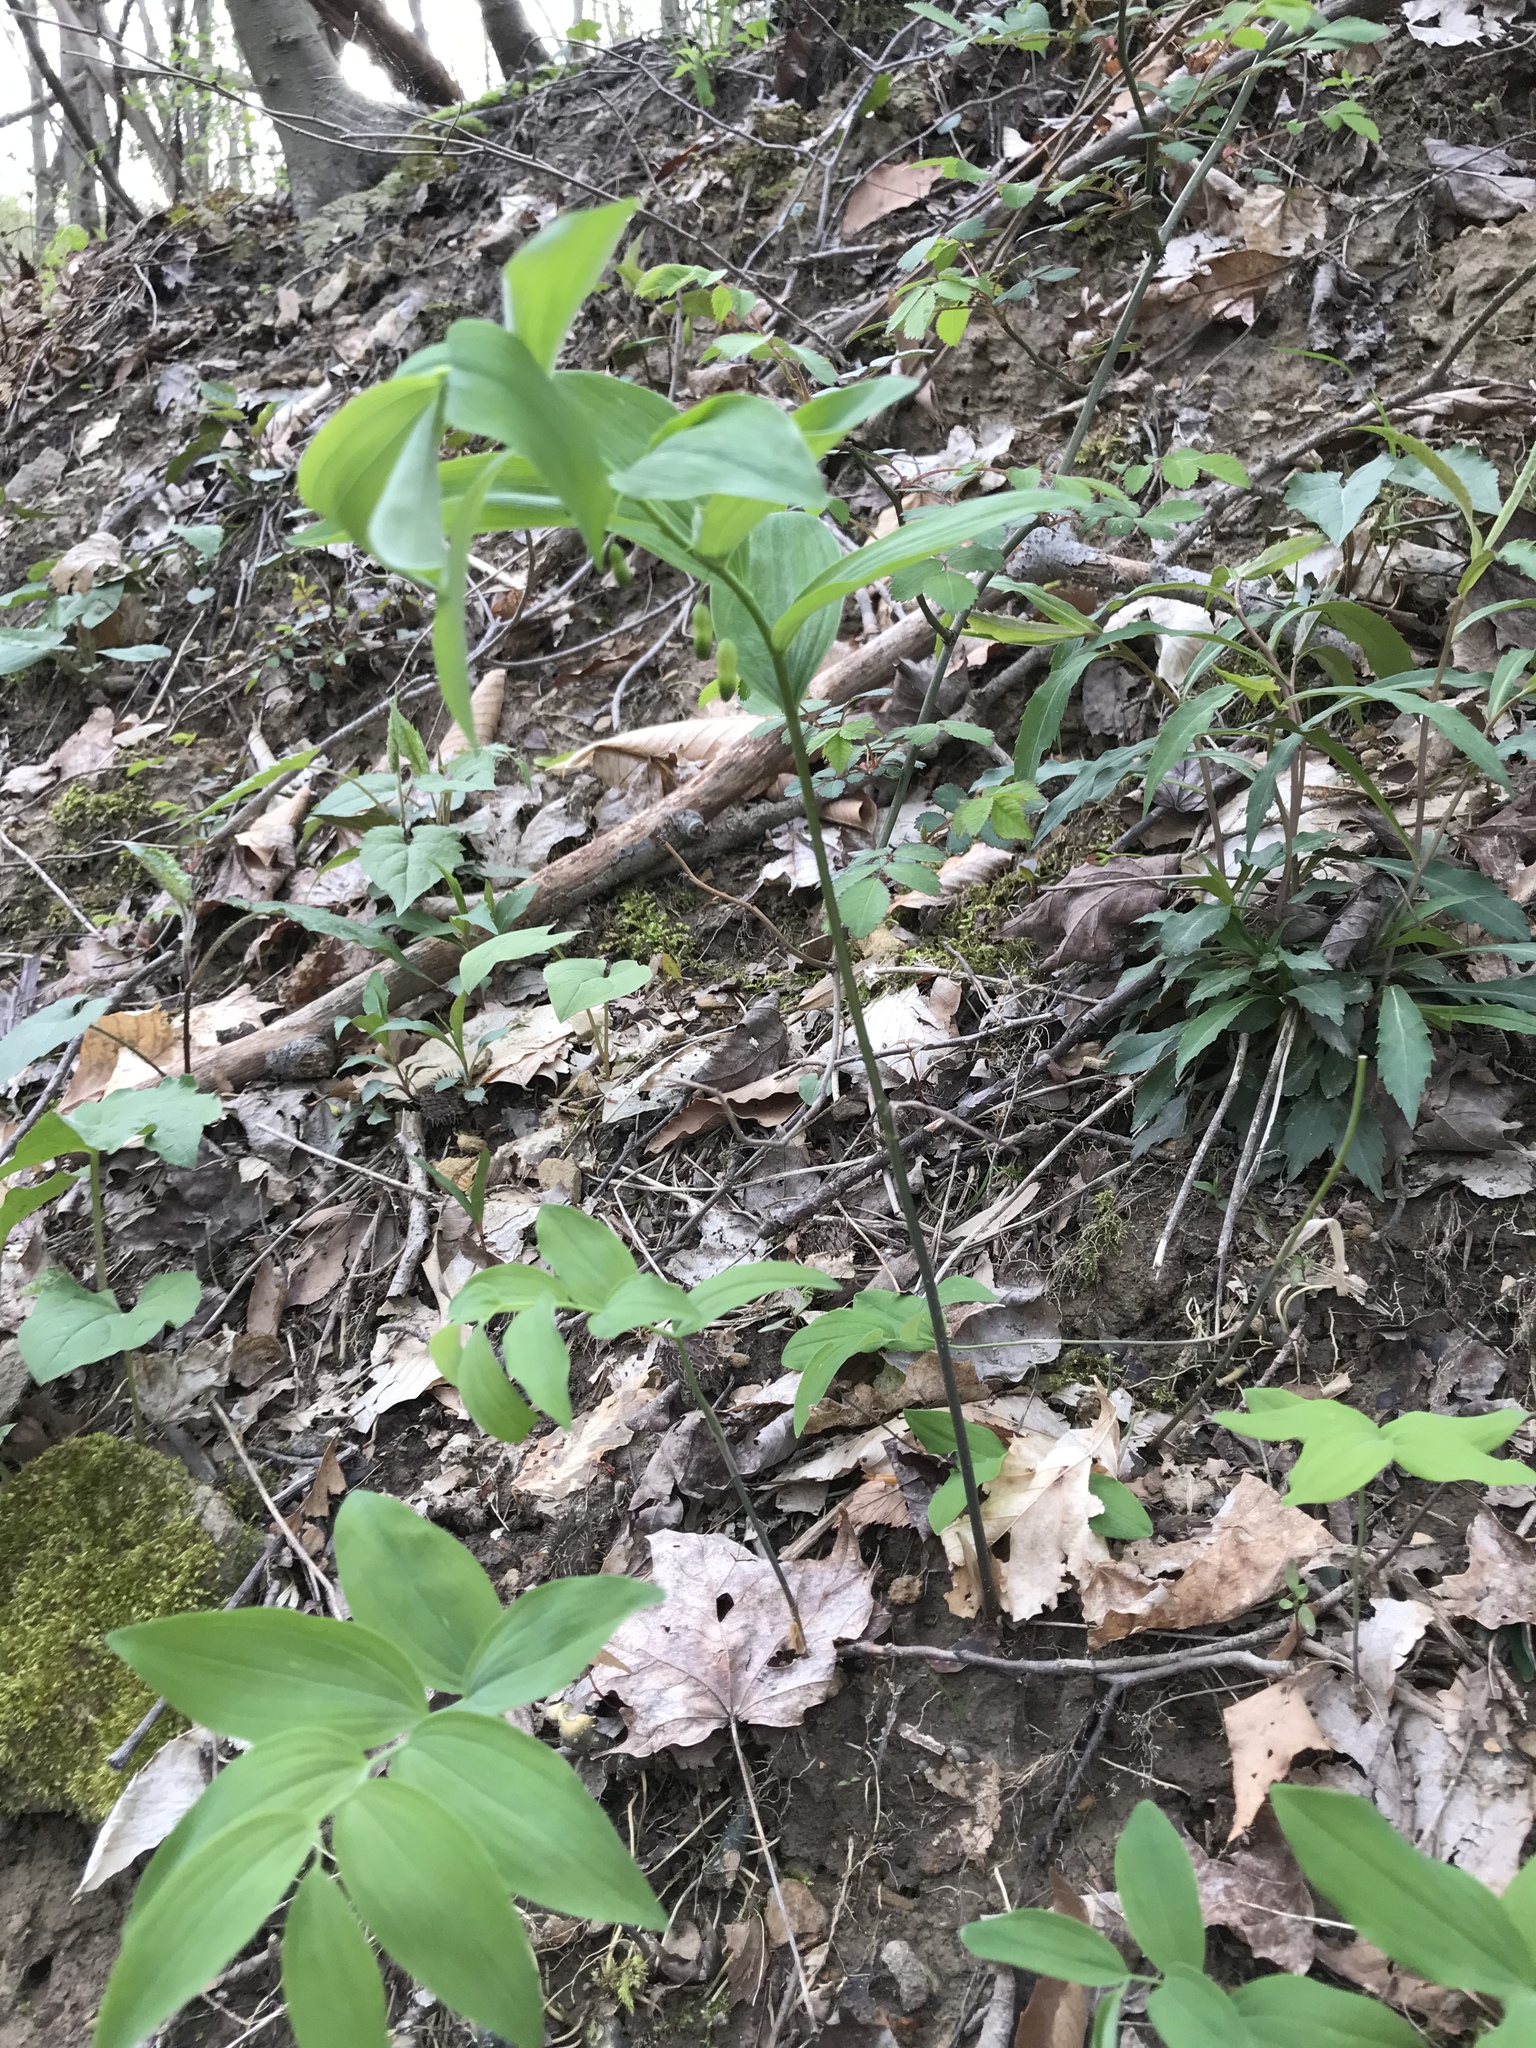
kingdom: Plantae
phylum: Tracheophyta
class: Liliopsida
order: Asparagales
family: Asparagaceae
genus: Polygonatum
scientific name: Polygonatum pubescens
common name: Downy solomon's seal
